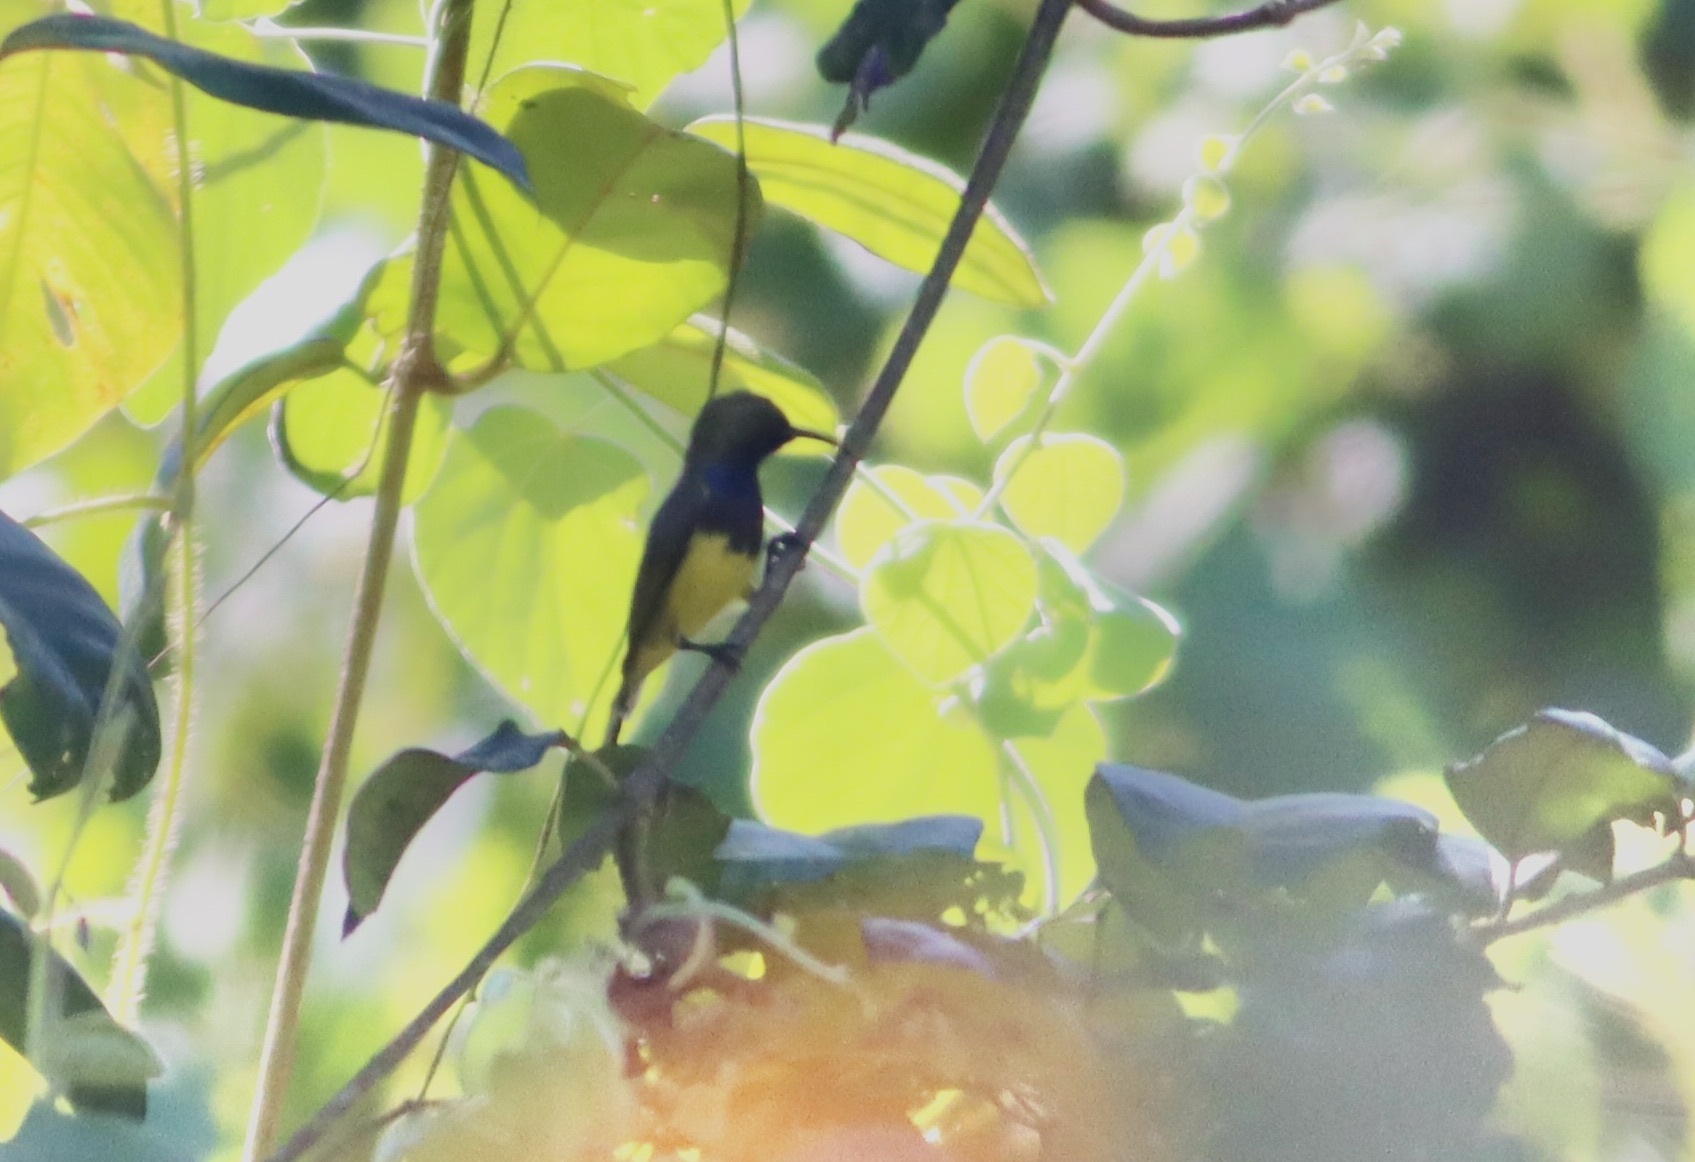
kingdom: Animalia
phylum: Chordata
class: Aves
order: Passeriformes
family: Nectariniidae
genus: Cinnyris
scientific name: Cinnyris
